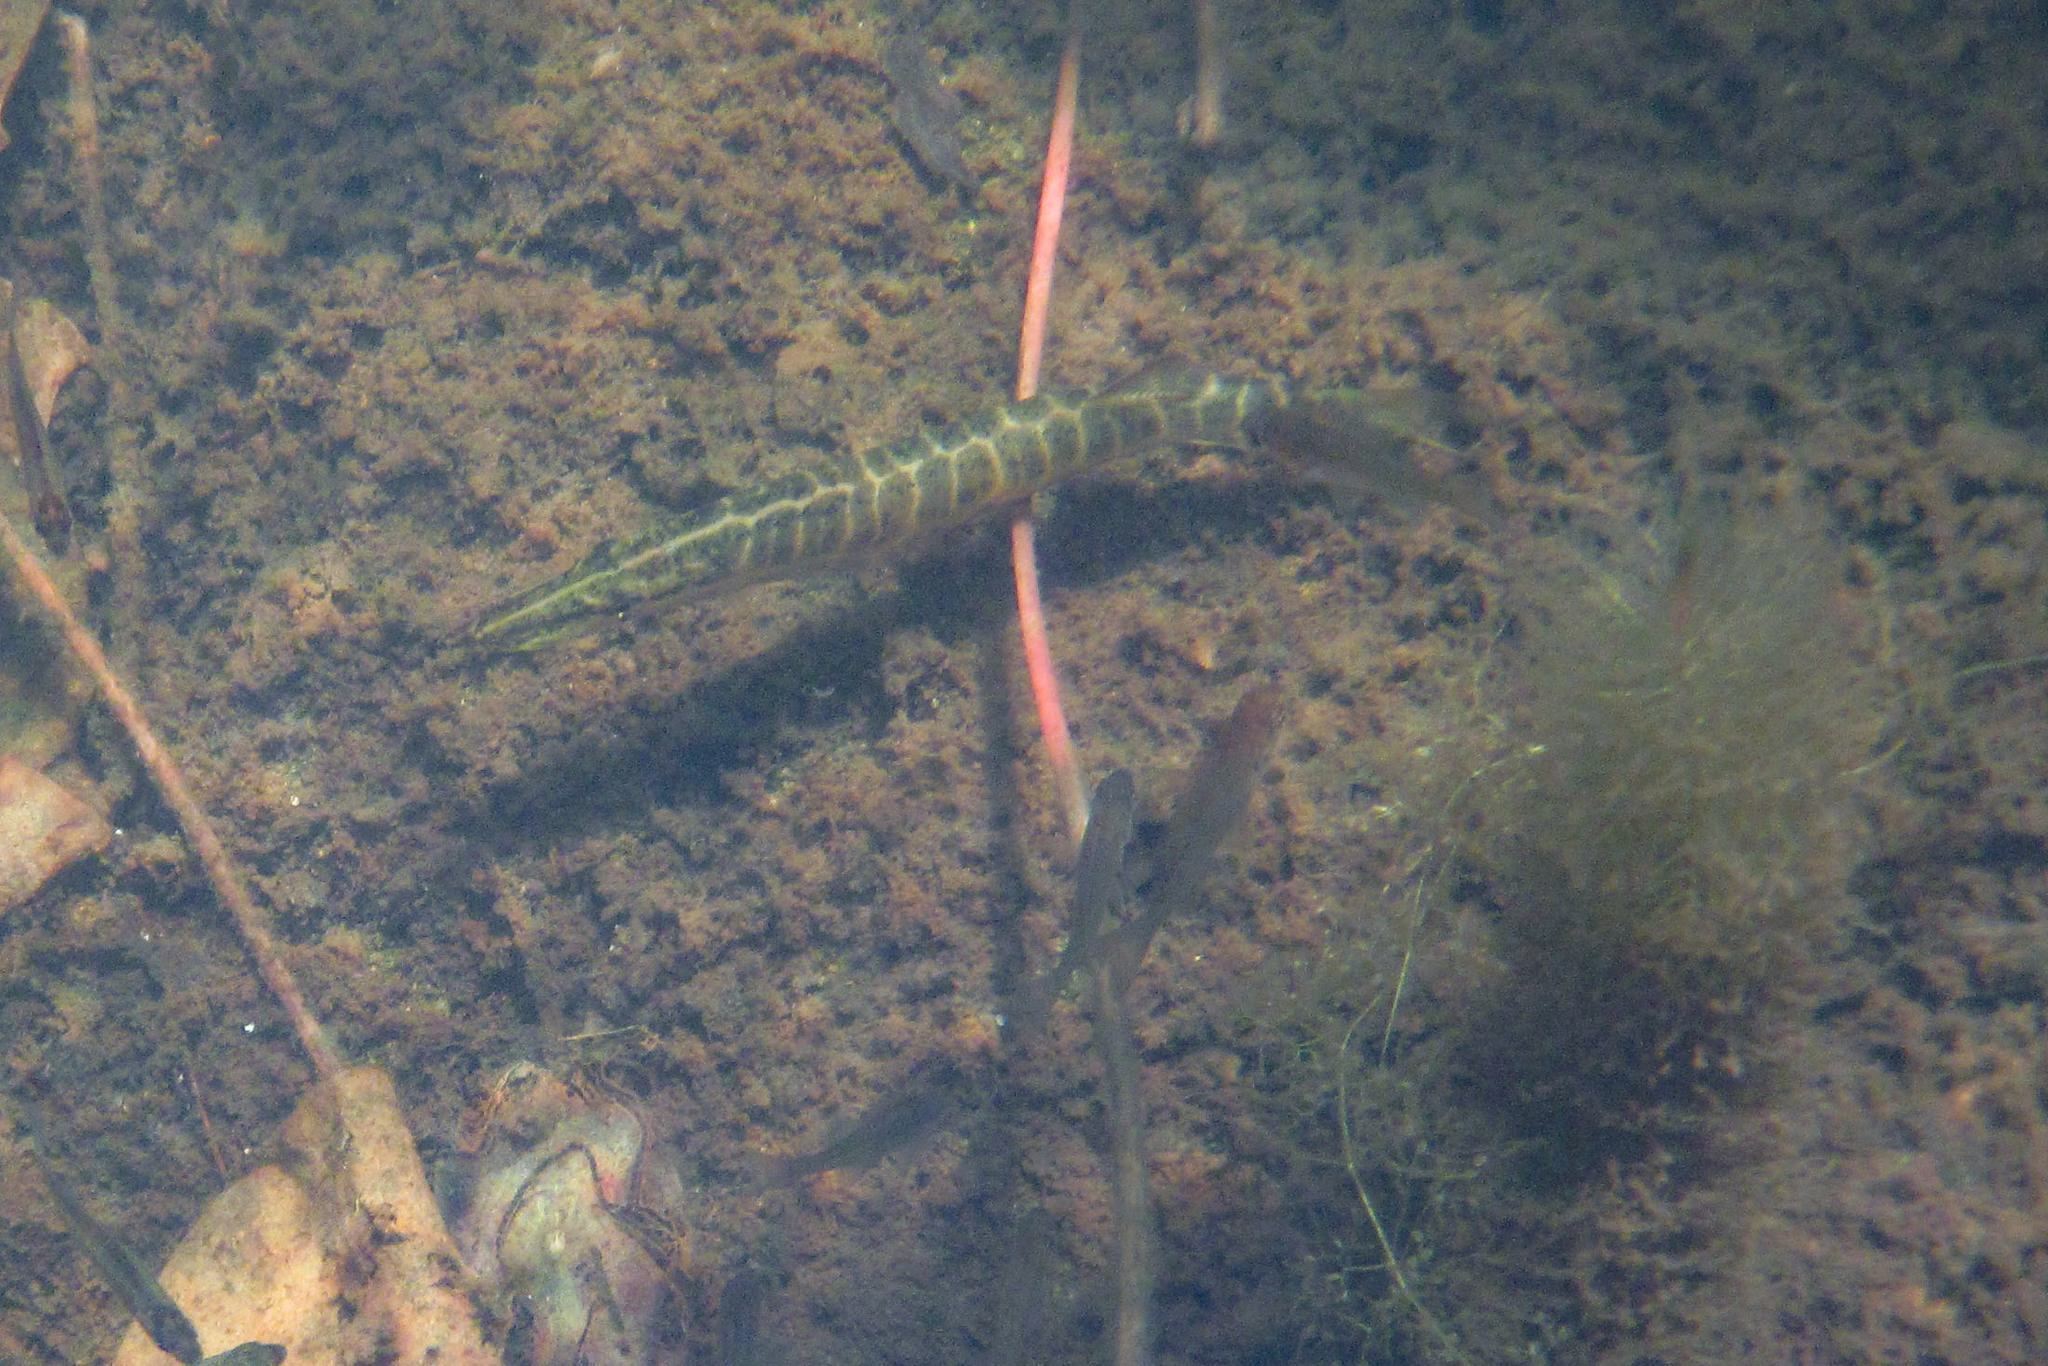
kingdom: Animalia
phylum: Chordata
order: Esociformes
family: Esocidae
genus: Esox
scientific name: Esox niger
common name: Chain pickerel
